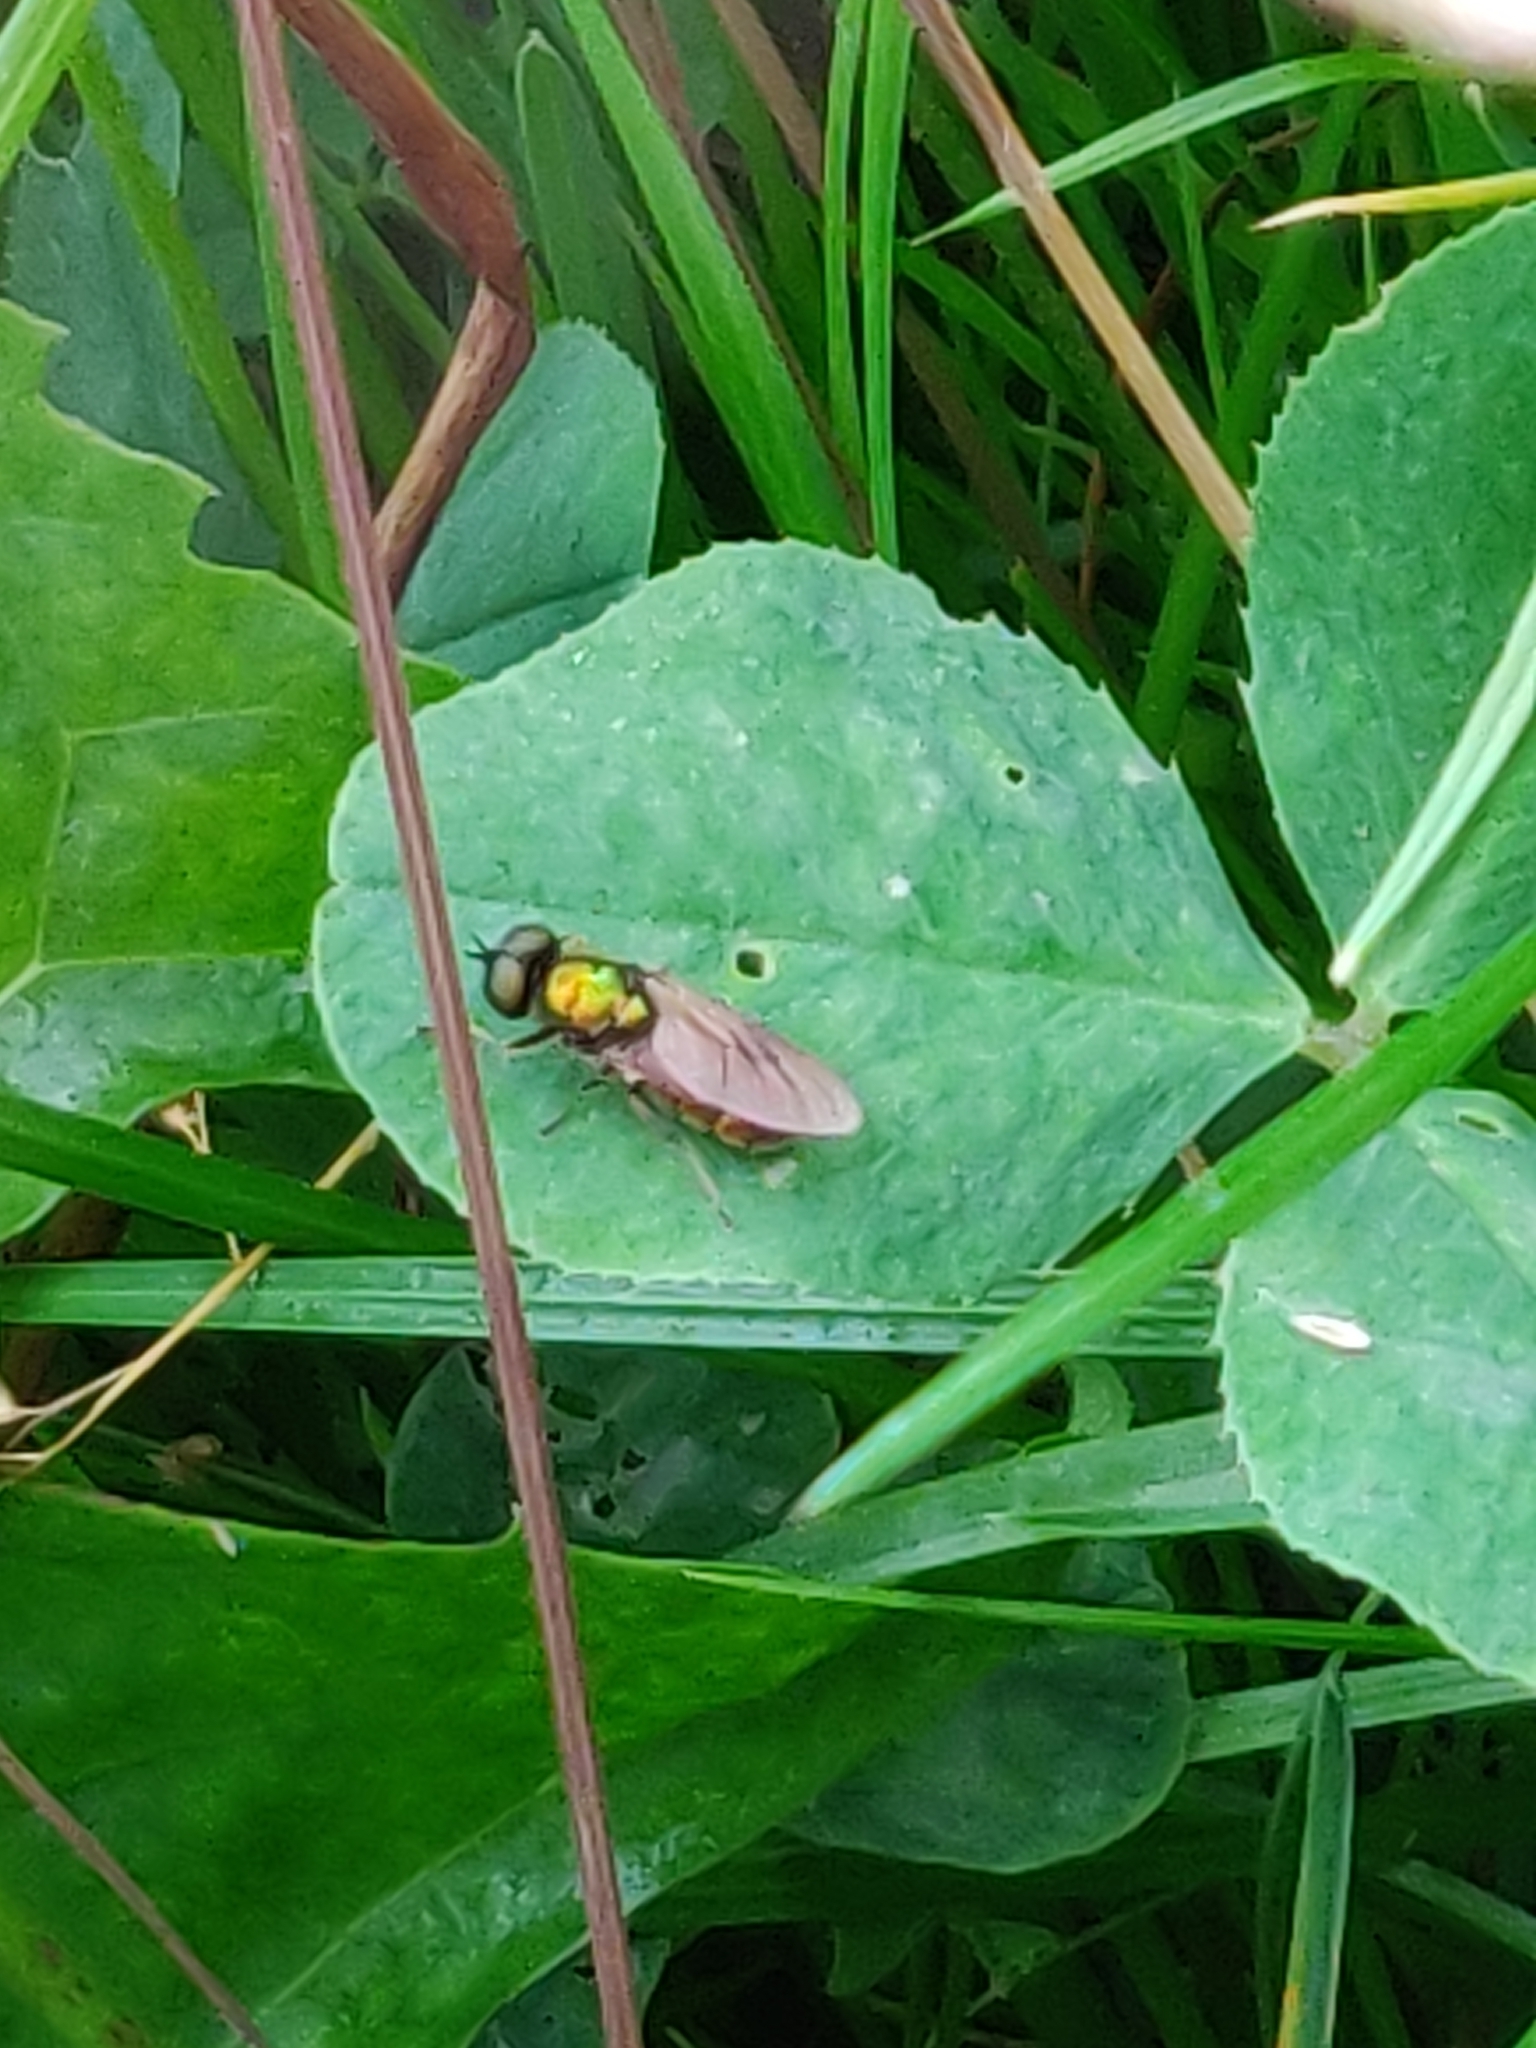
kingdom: Animalia
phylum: Arthropoda
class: Insecta
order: Diptera
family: Stratiomyidae
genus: Chloromyia
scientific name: Chloromyia formosa
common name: Soldier fly
